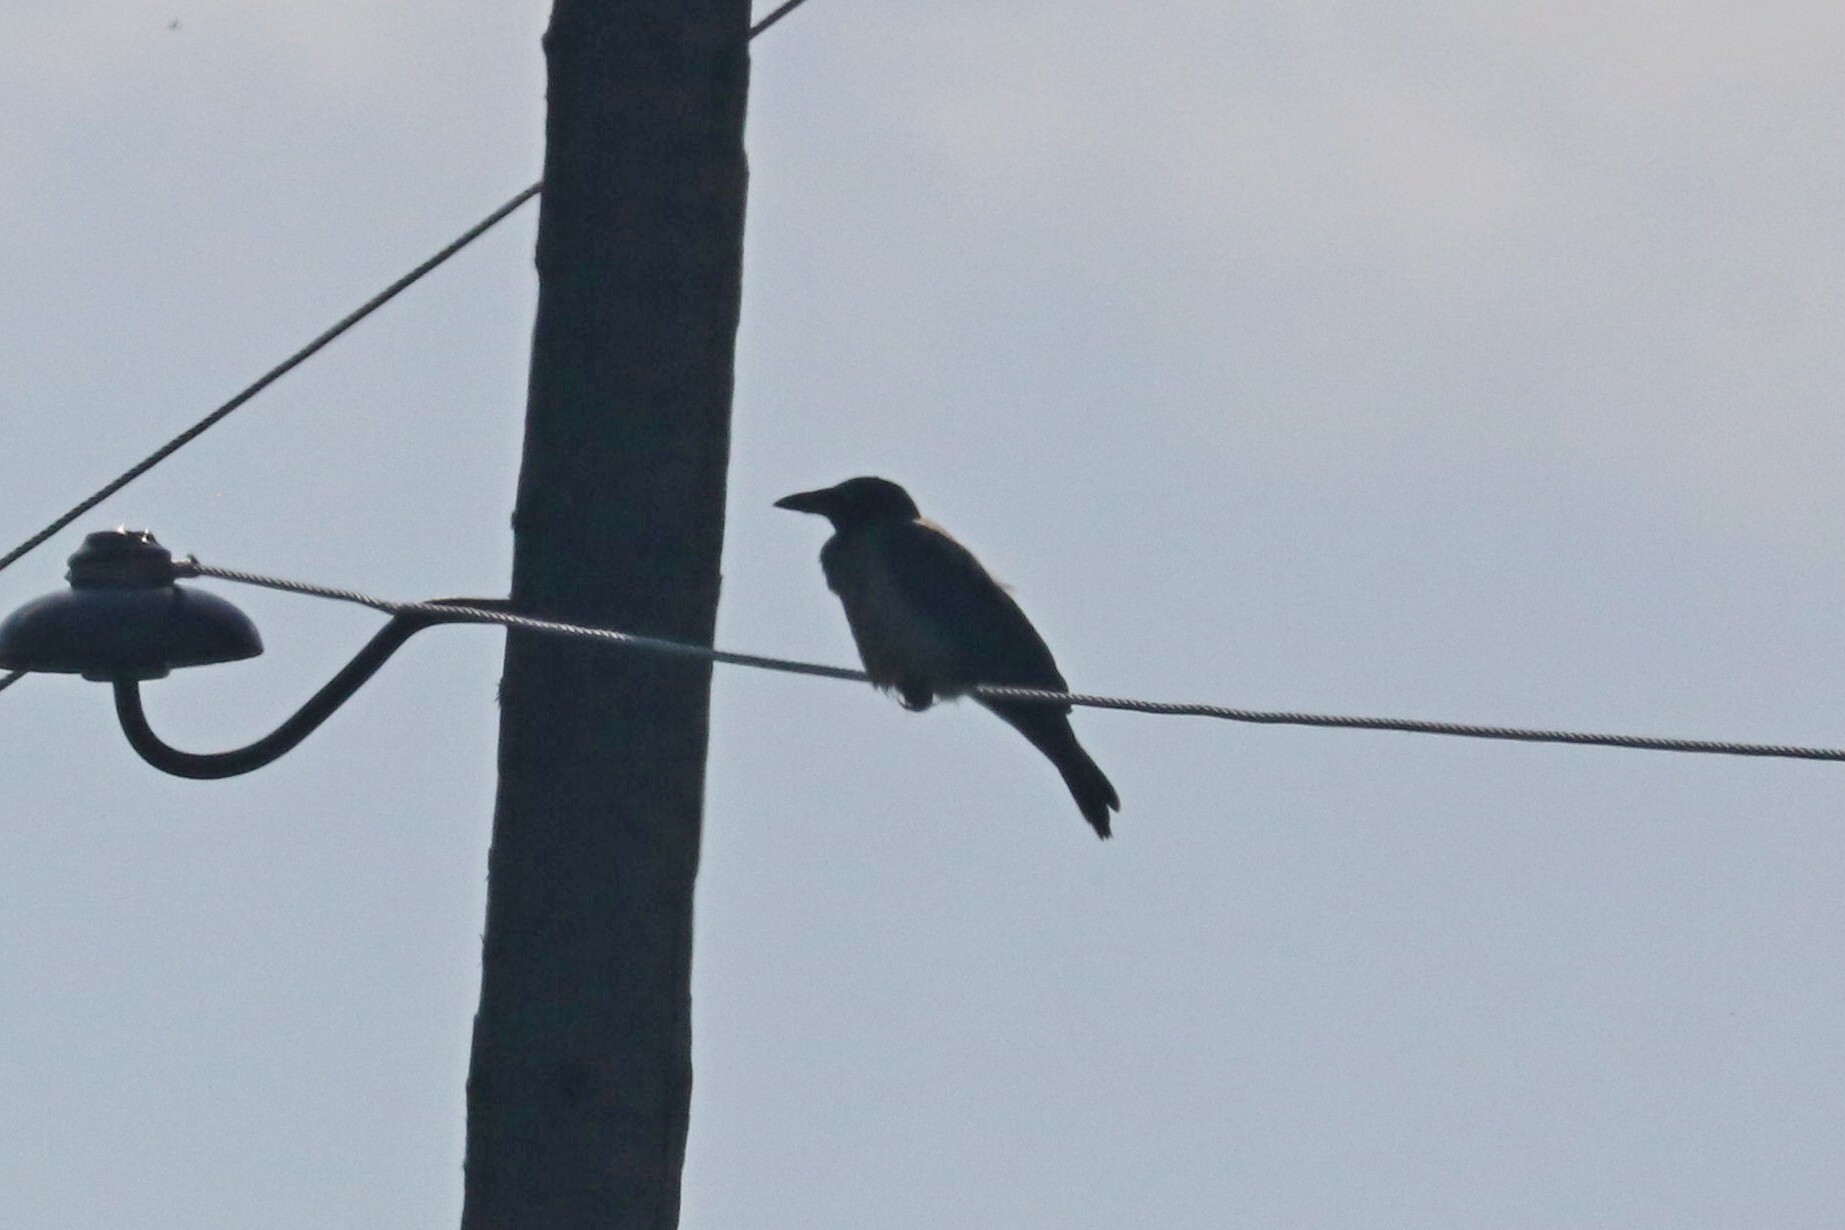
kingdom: Animalia
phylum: Chordata
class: Aves
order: Passeriformes
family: Corvidae
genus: Corvus
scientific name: Corvus cornix
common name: Hooded crow
